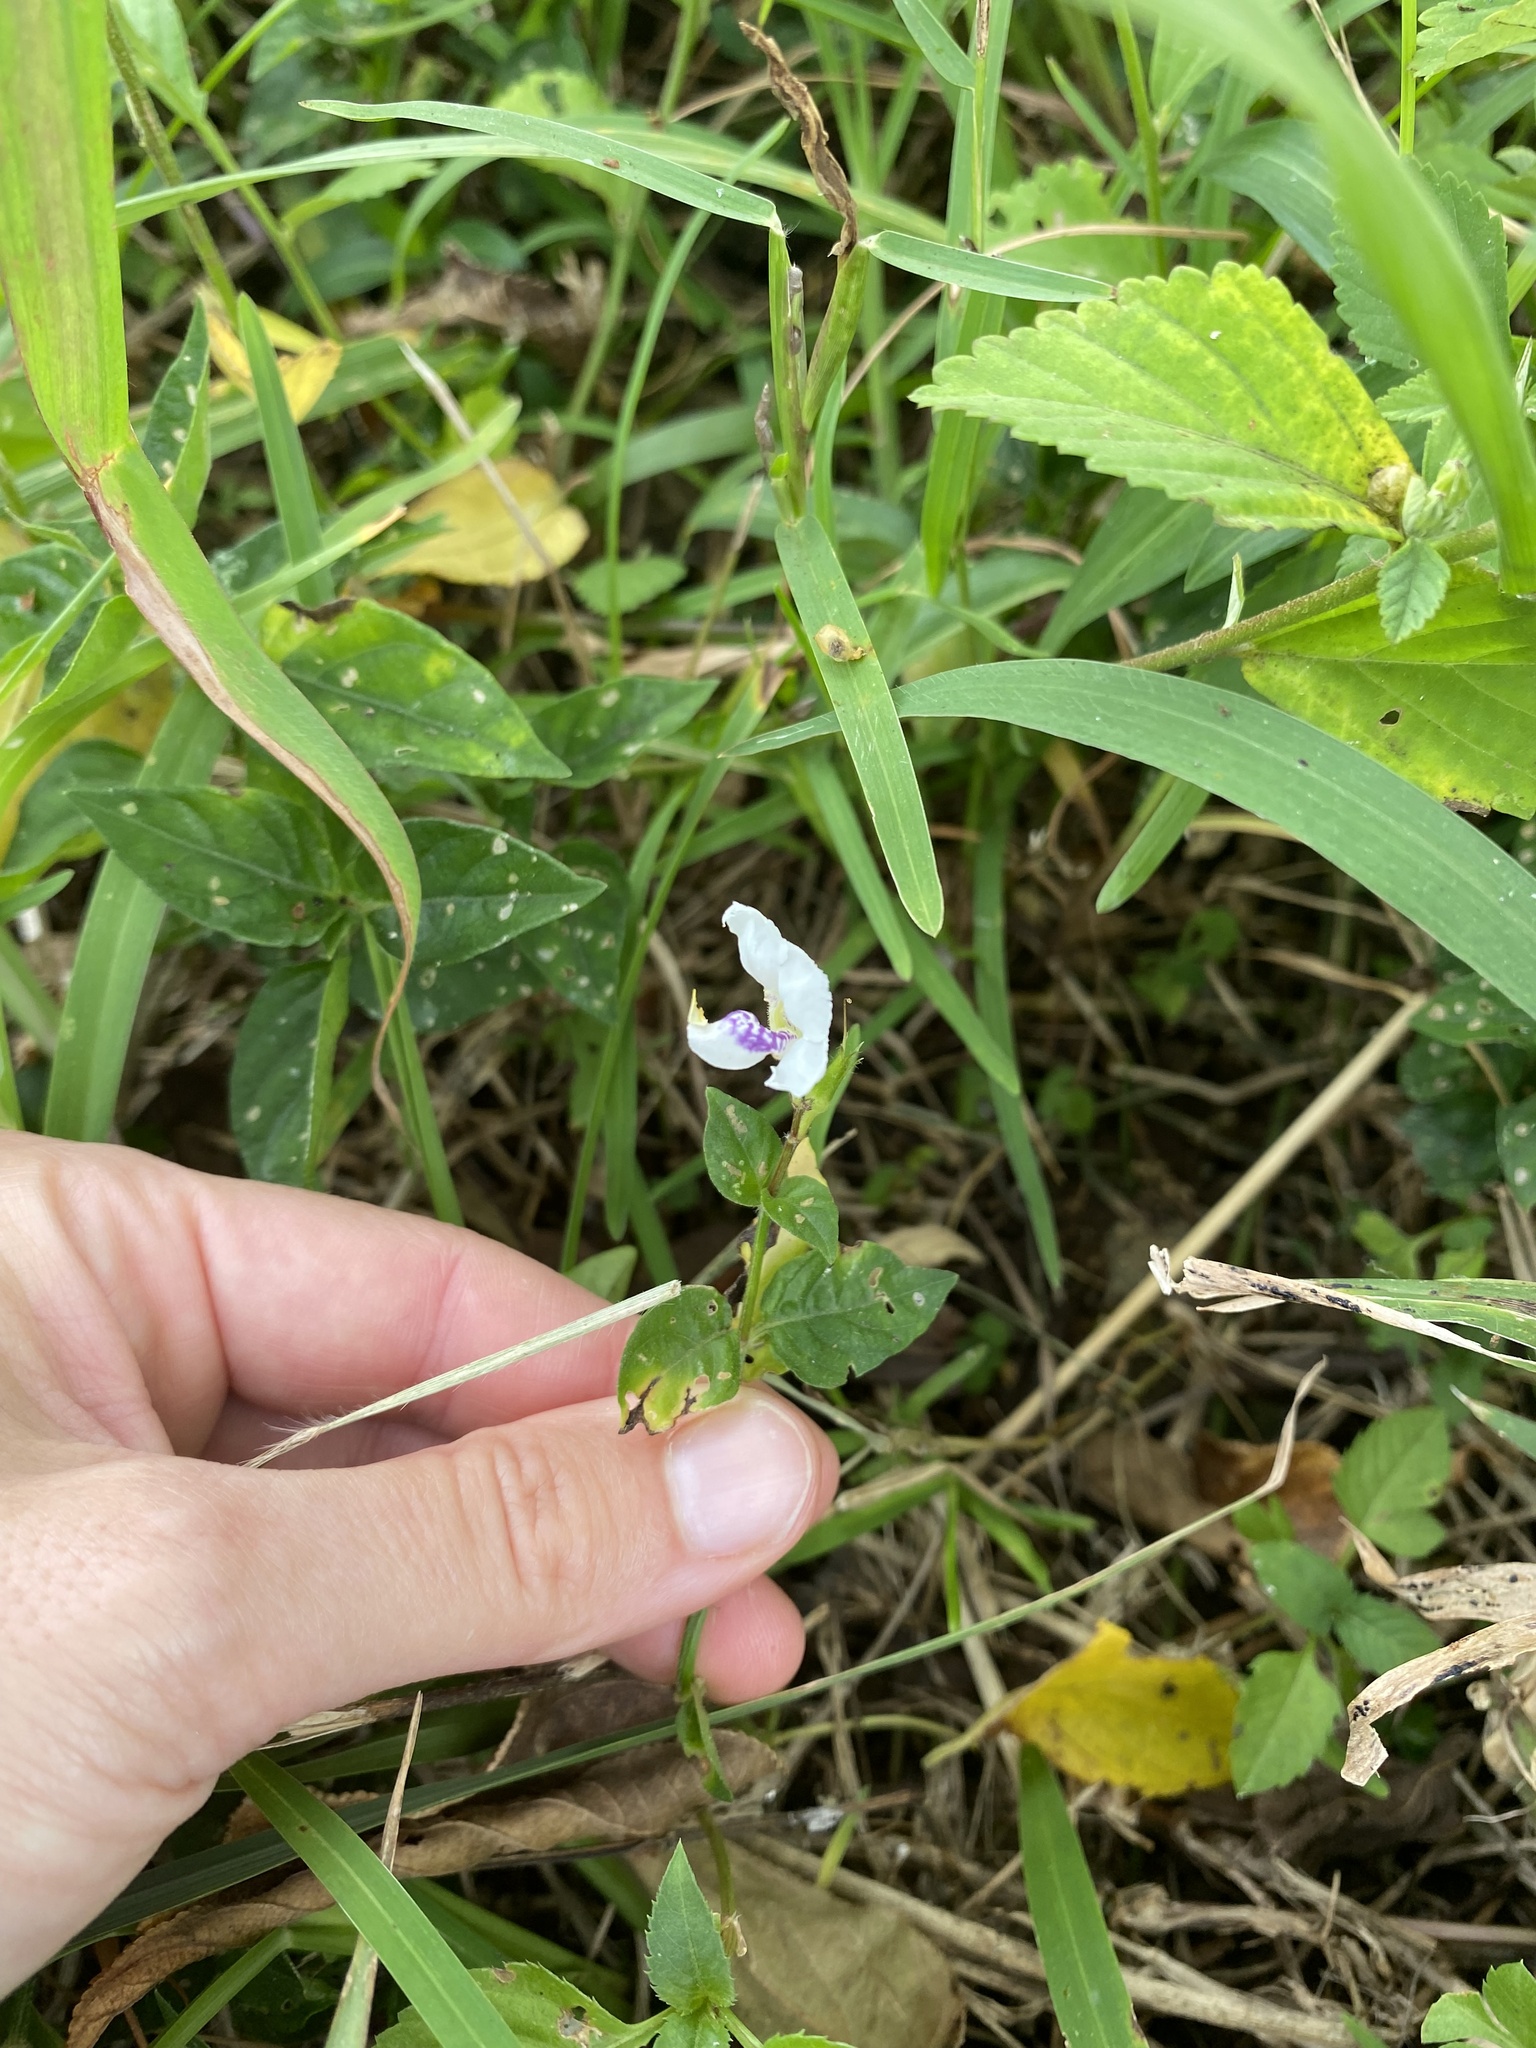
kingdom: Plantae
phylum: Tracheophyta
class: Magnoliopsida
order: Lamiales
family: Acanthaceae
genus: Asystasia
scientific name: Asystasia intrusa
